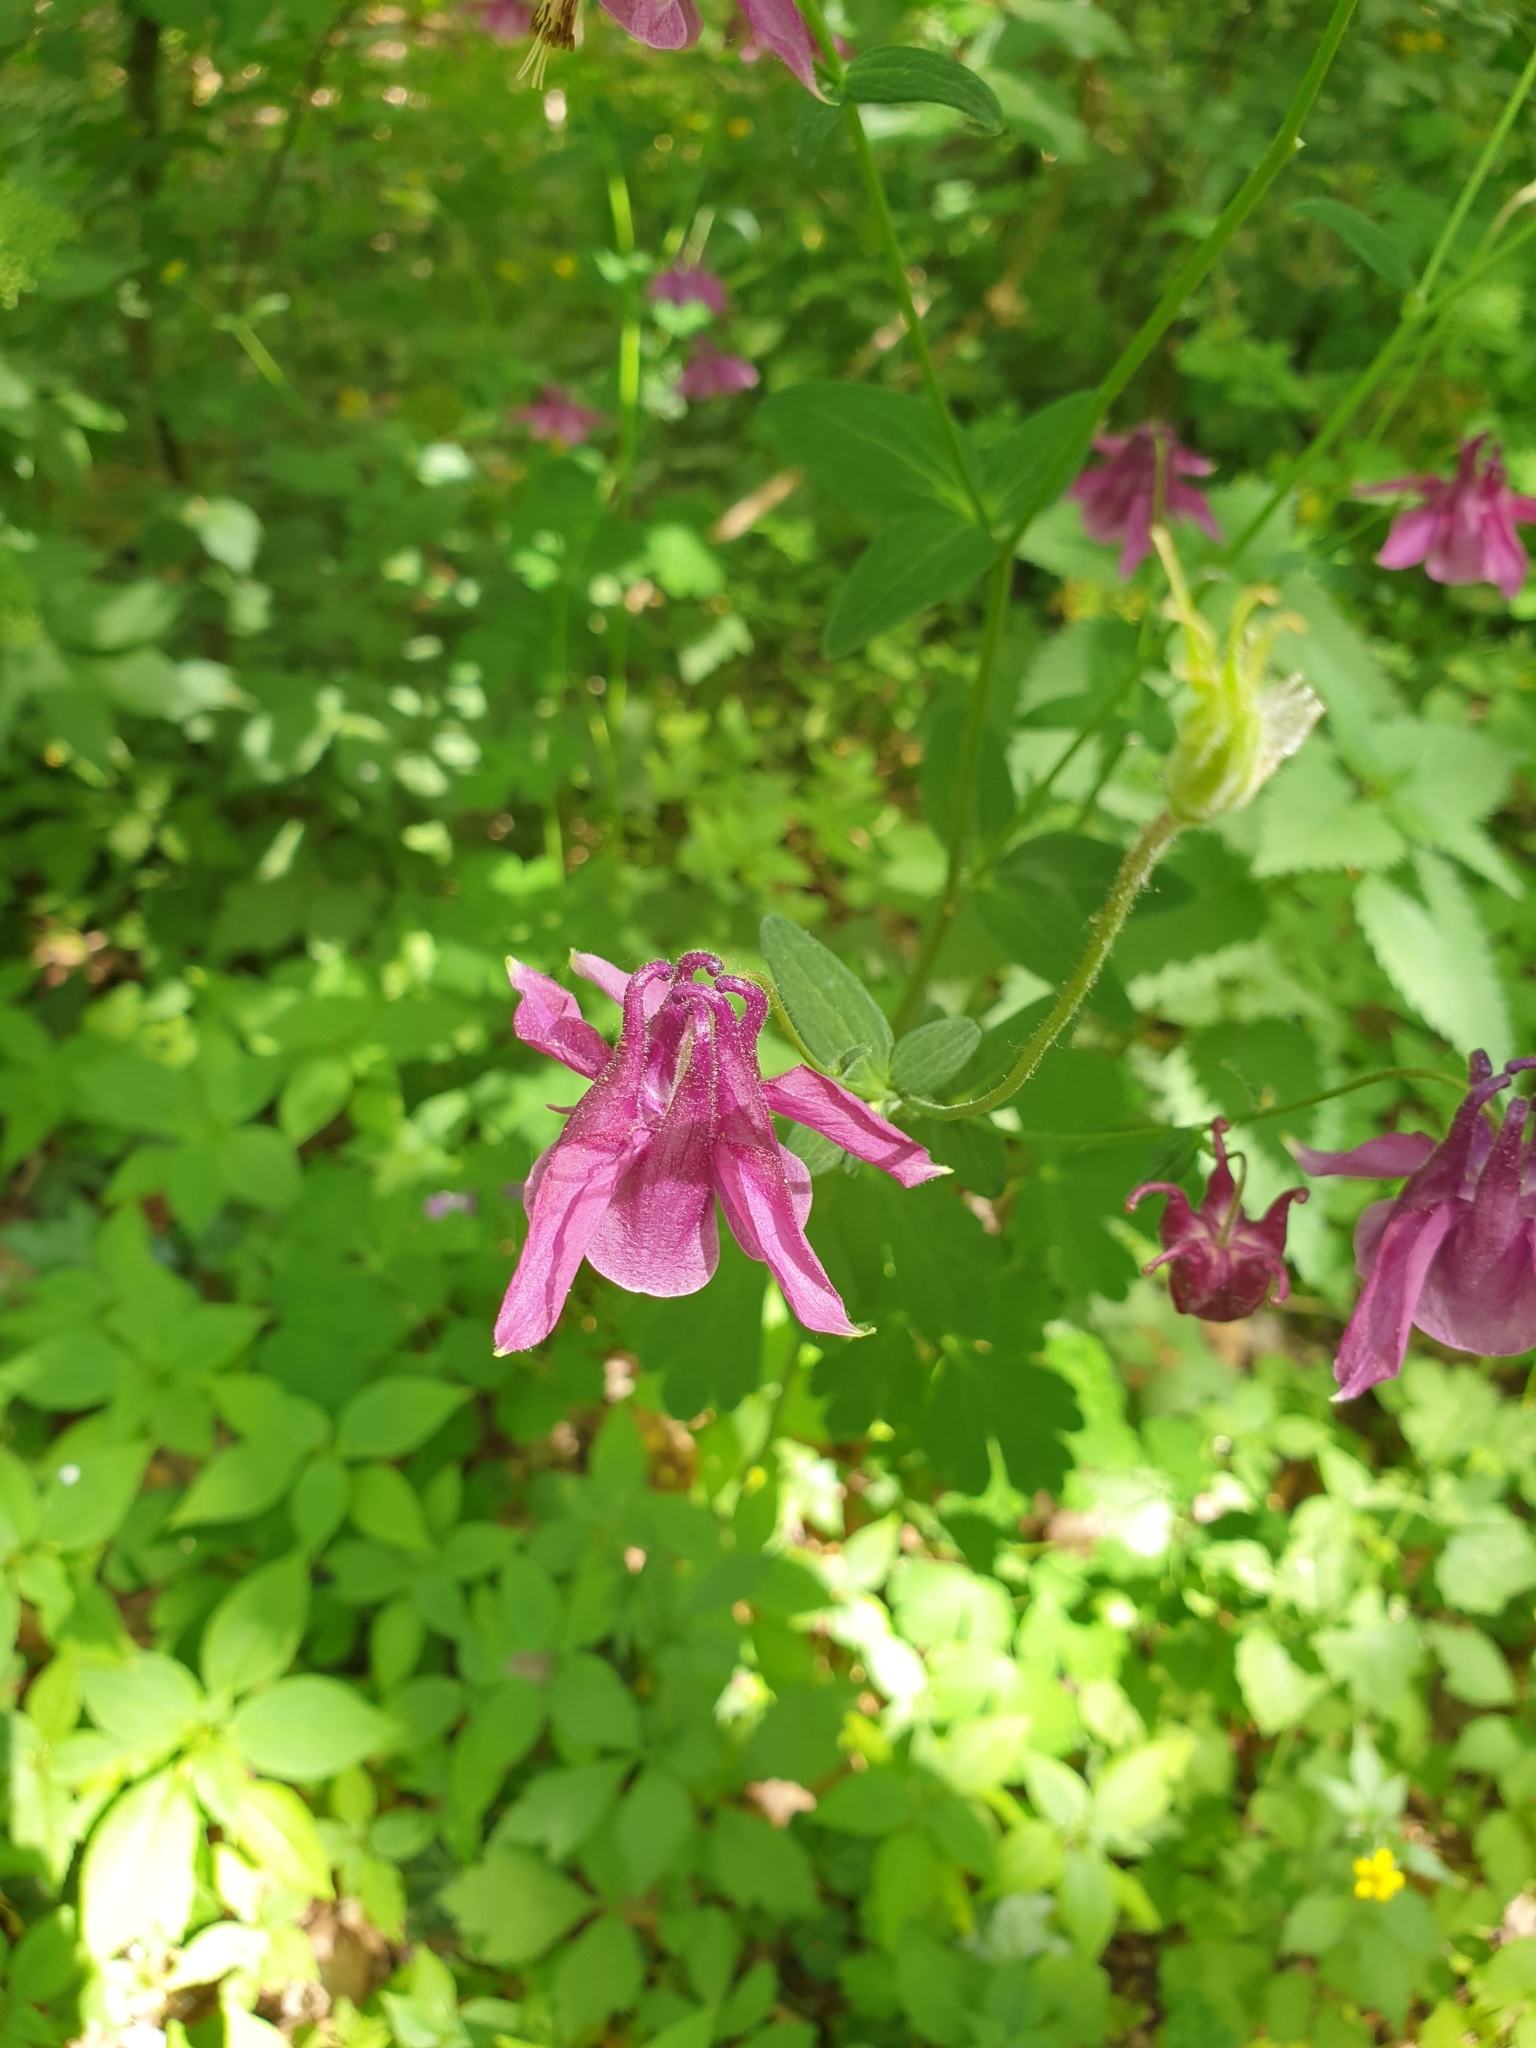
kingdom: Plantae
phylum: Tracheophyta
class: Magnoliopsida
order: Ranunculales
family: Ranunculaceae
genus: Aquilegia
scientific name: Aquilegia vulgaris
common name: Columbine
